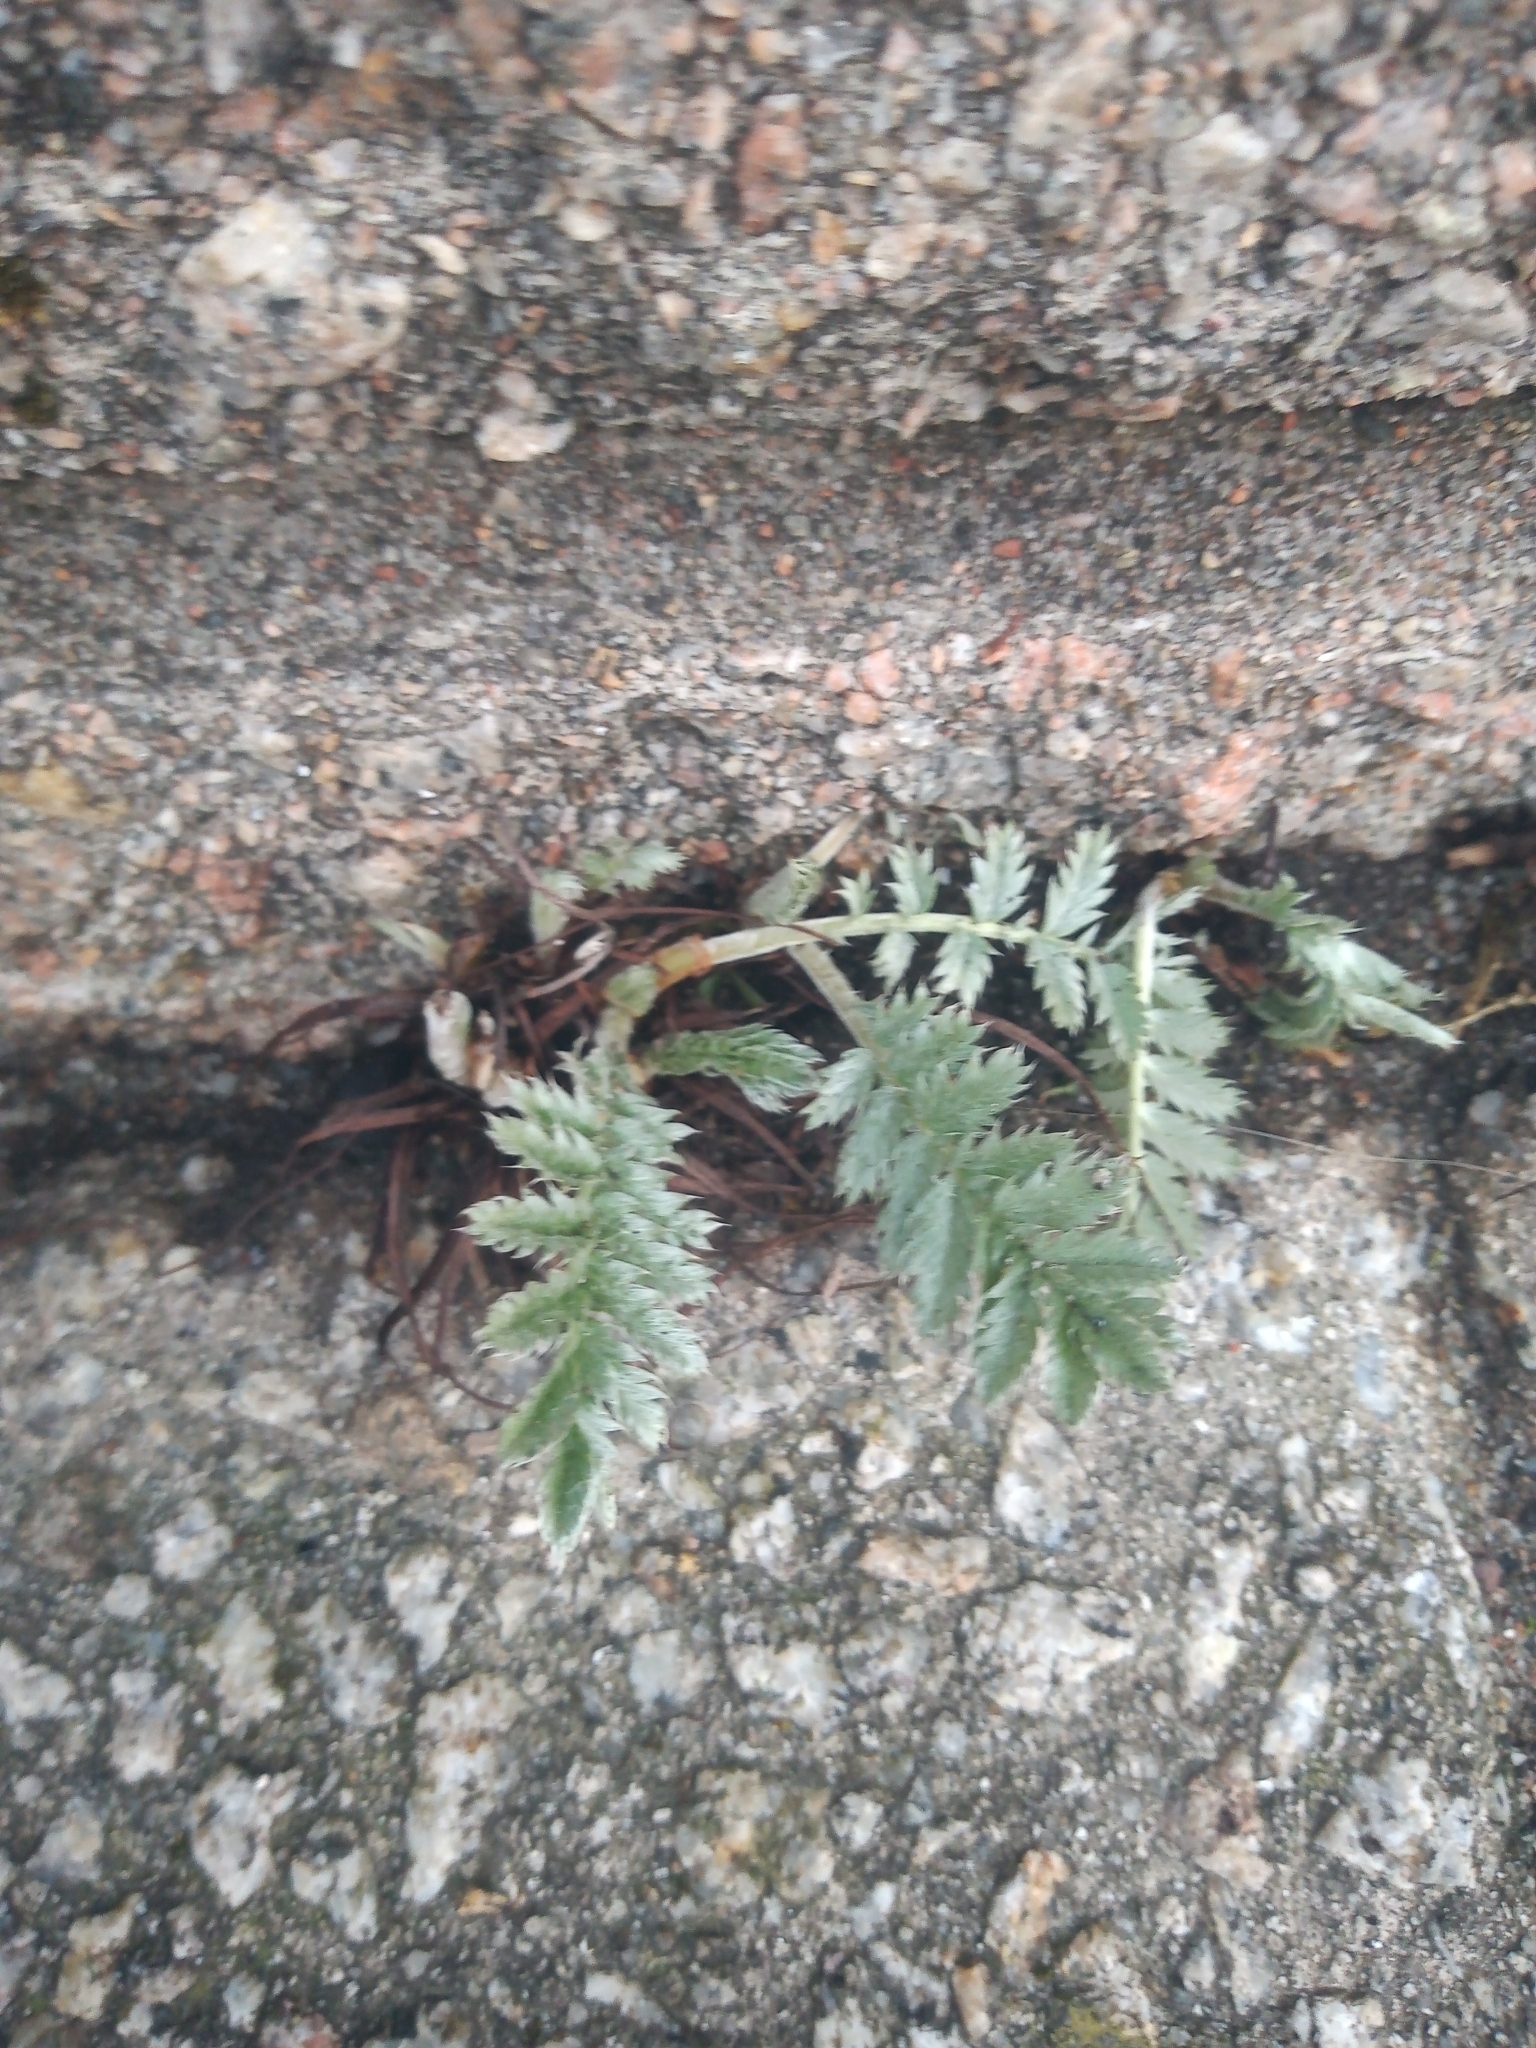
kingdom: Plantae
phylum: Tracheophyta
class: Magnoliopsida
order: Rosales
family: Rosaceae
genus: Argentina
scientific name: Argentina anserina
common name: Common silverweed
